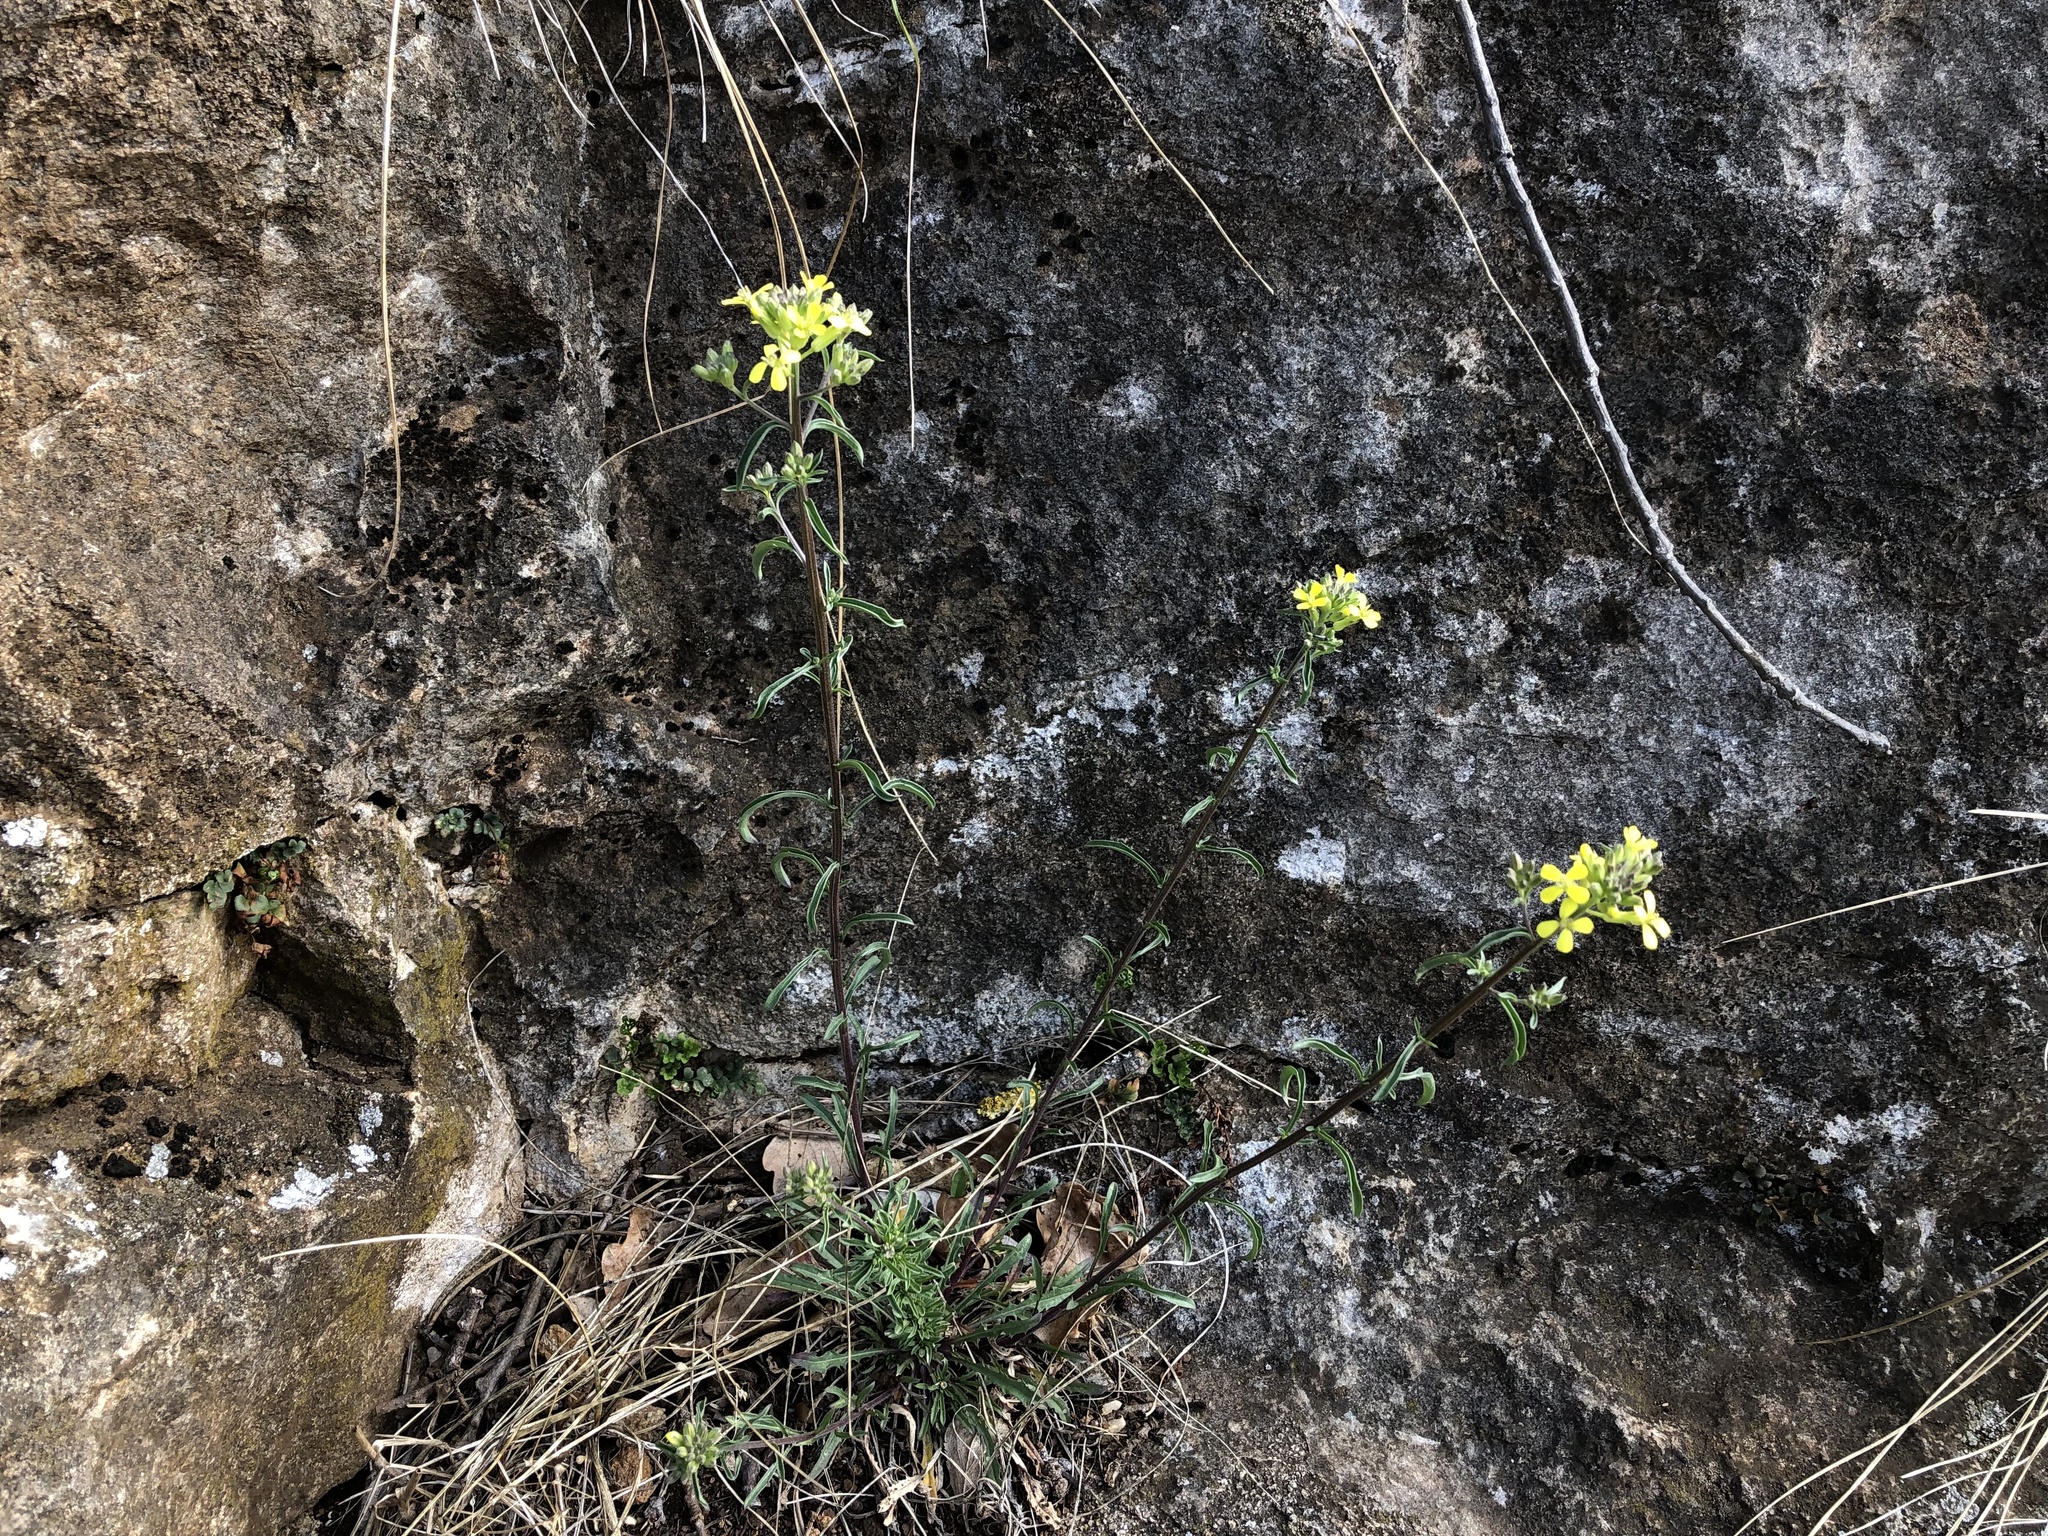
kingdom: Plantae
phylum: Tracheophyta
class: Magnoliopsida
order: Brassicales
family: Brassicaceae
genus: Erysimum
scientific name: Erysimum crepidifolium
